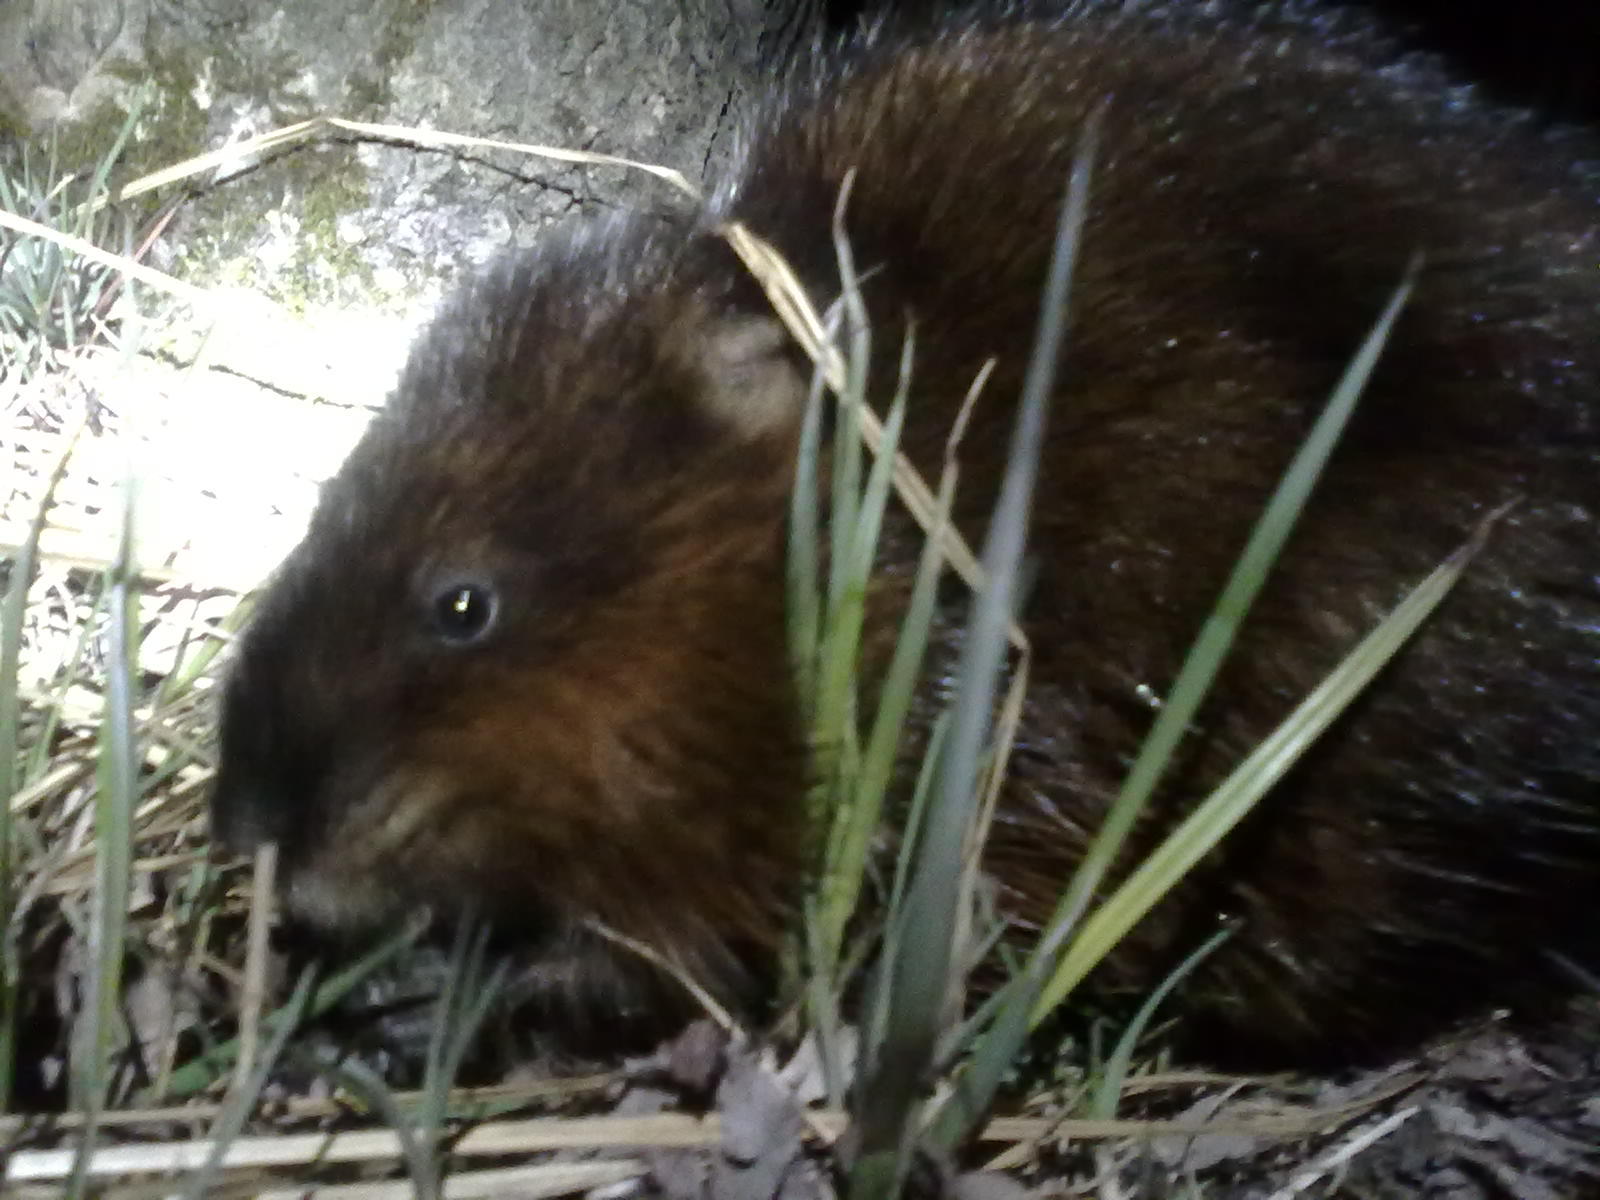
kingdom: Animalia
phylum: Chordata
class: Mammalia
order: Rodentia
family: Cricetidae
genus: Ondatra
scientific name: Ondatra zibethicus
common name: Muskrat
